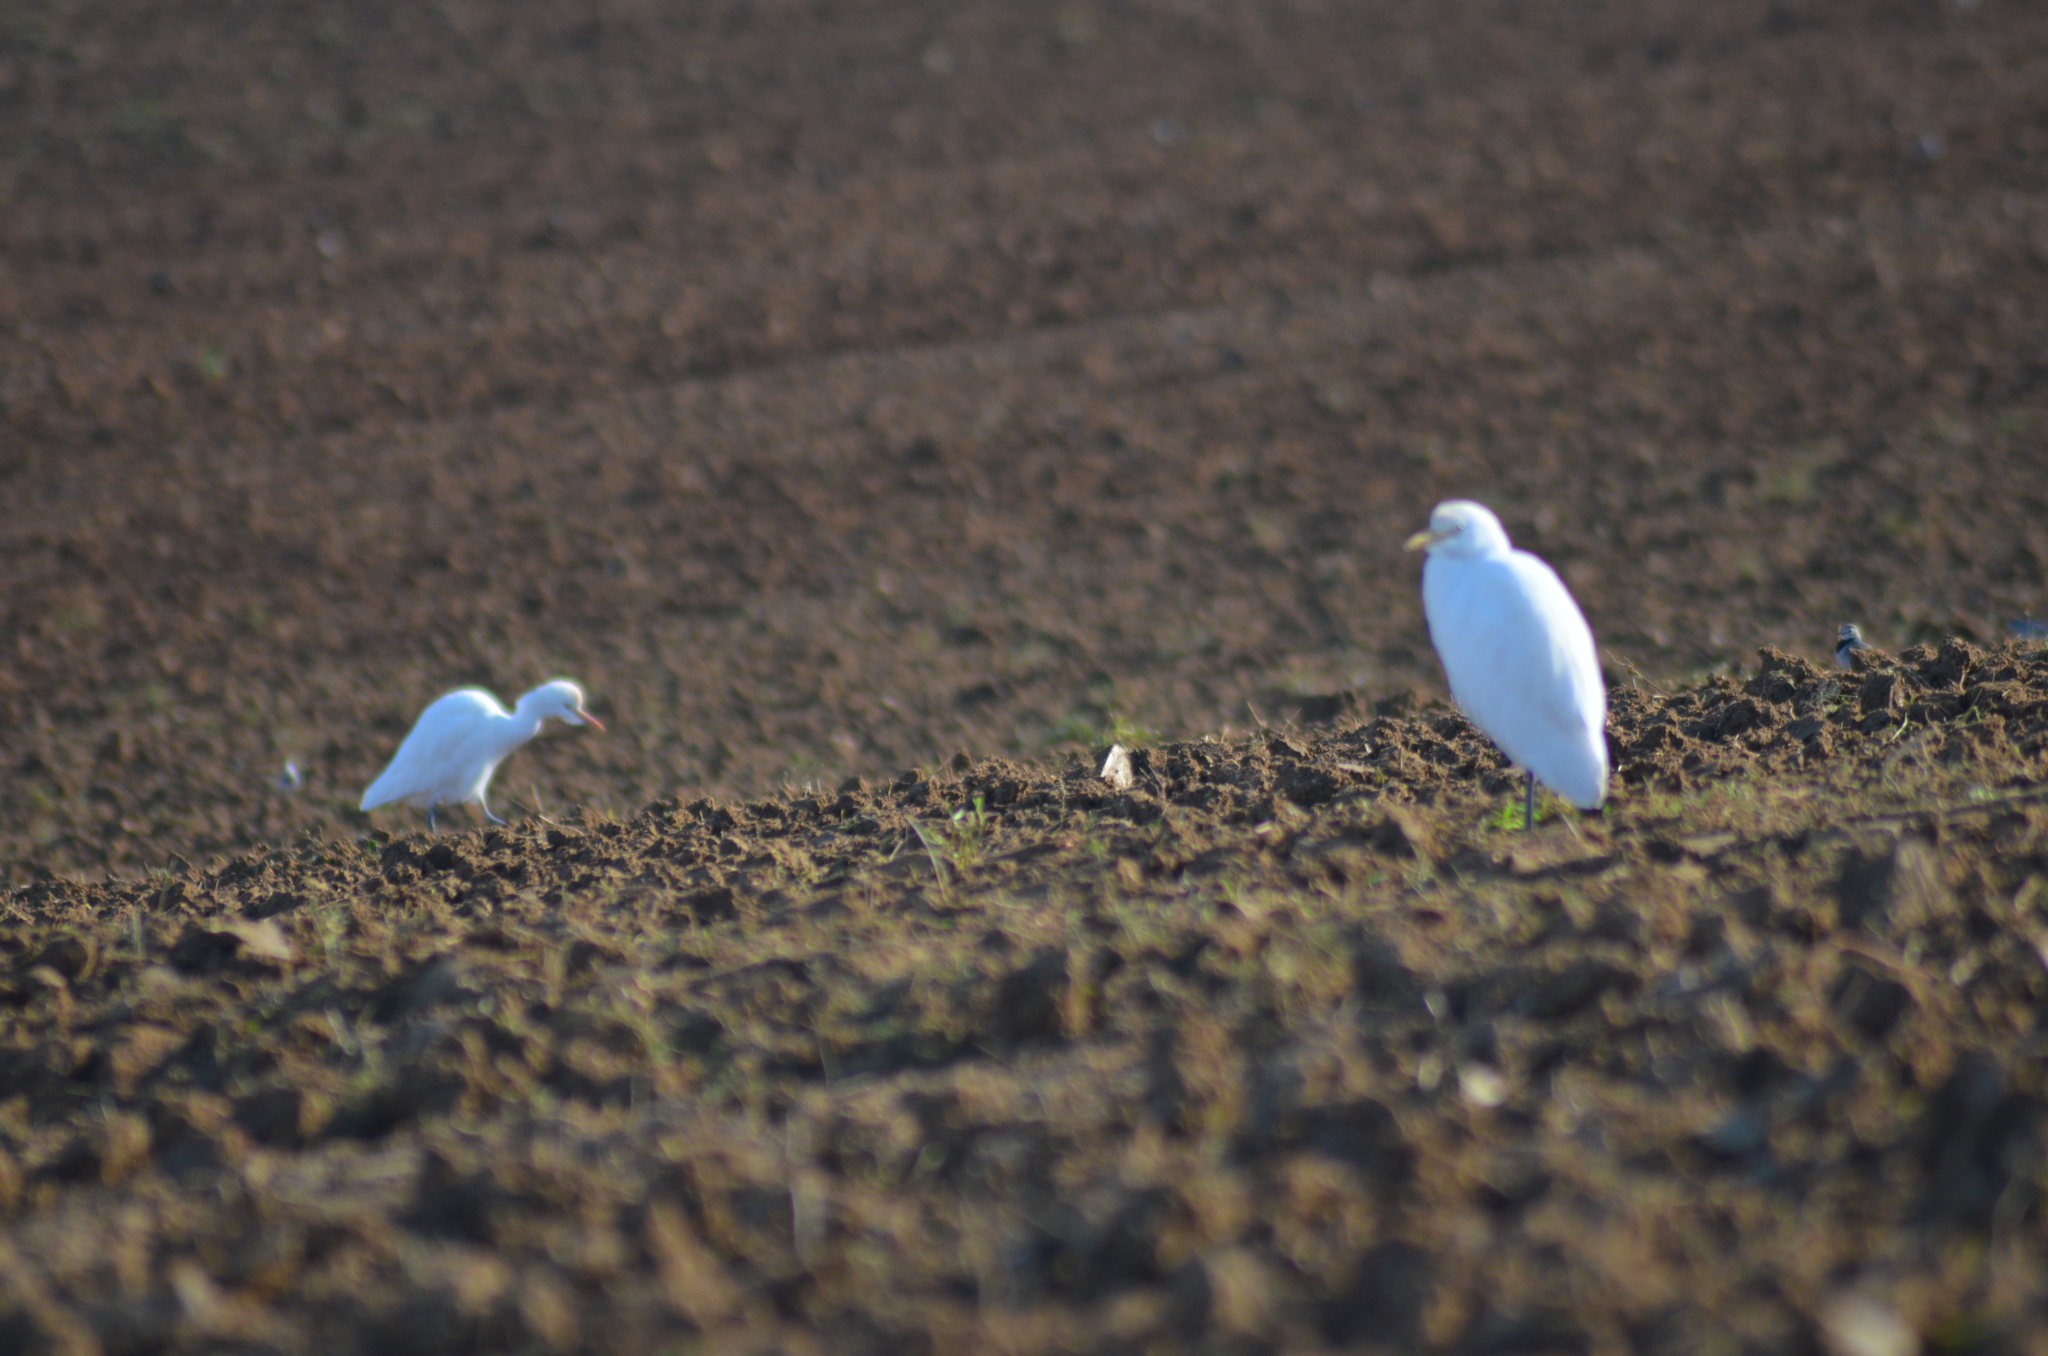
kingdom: Animalia
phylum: Chordata
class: Aves
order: Pelecaniformes
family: Ardeidae
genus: Bubulcus
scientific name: Bubulcus ibis
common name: Cattle egret
